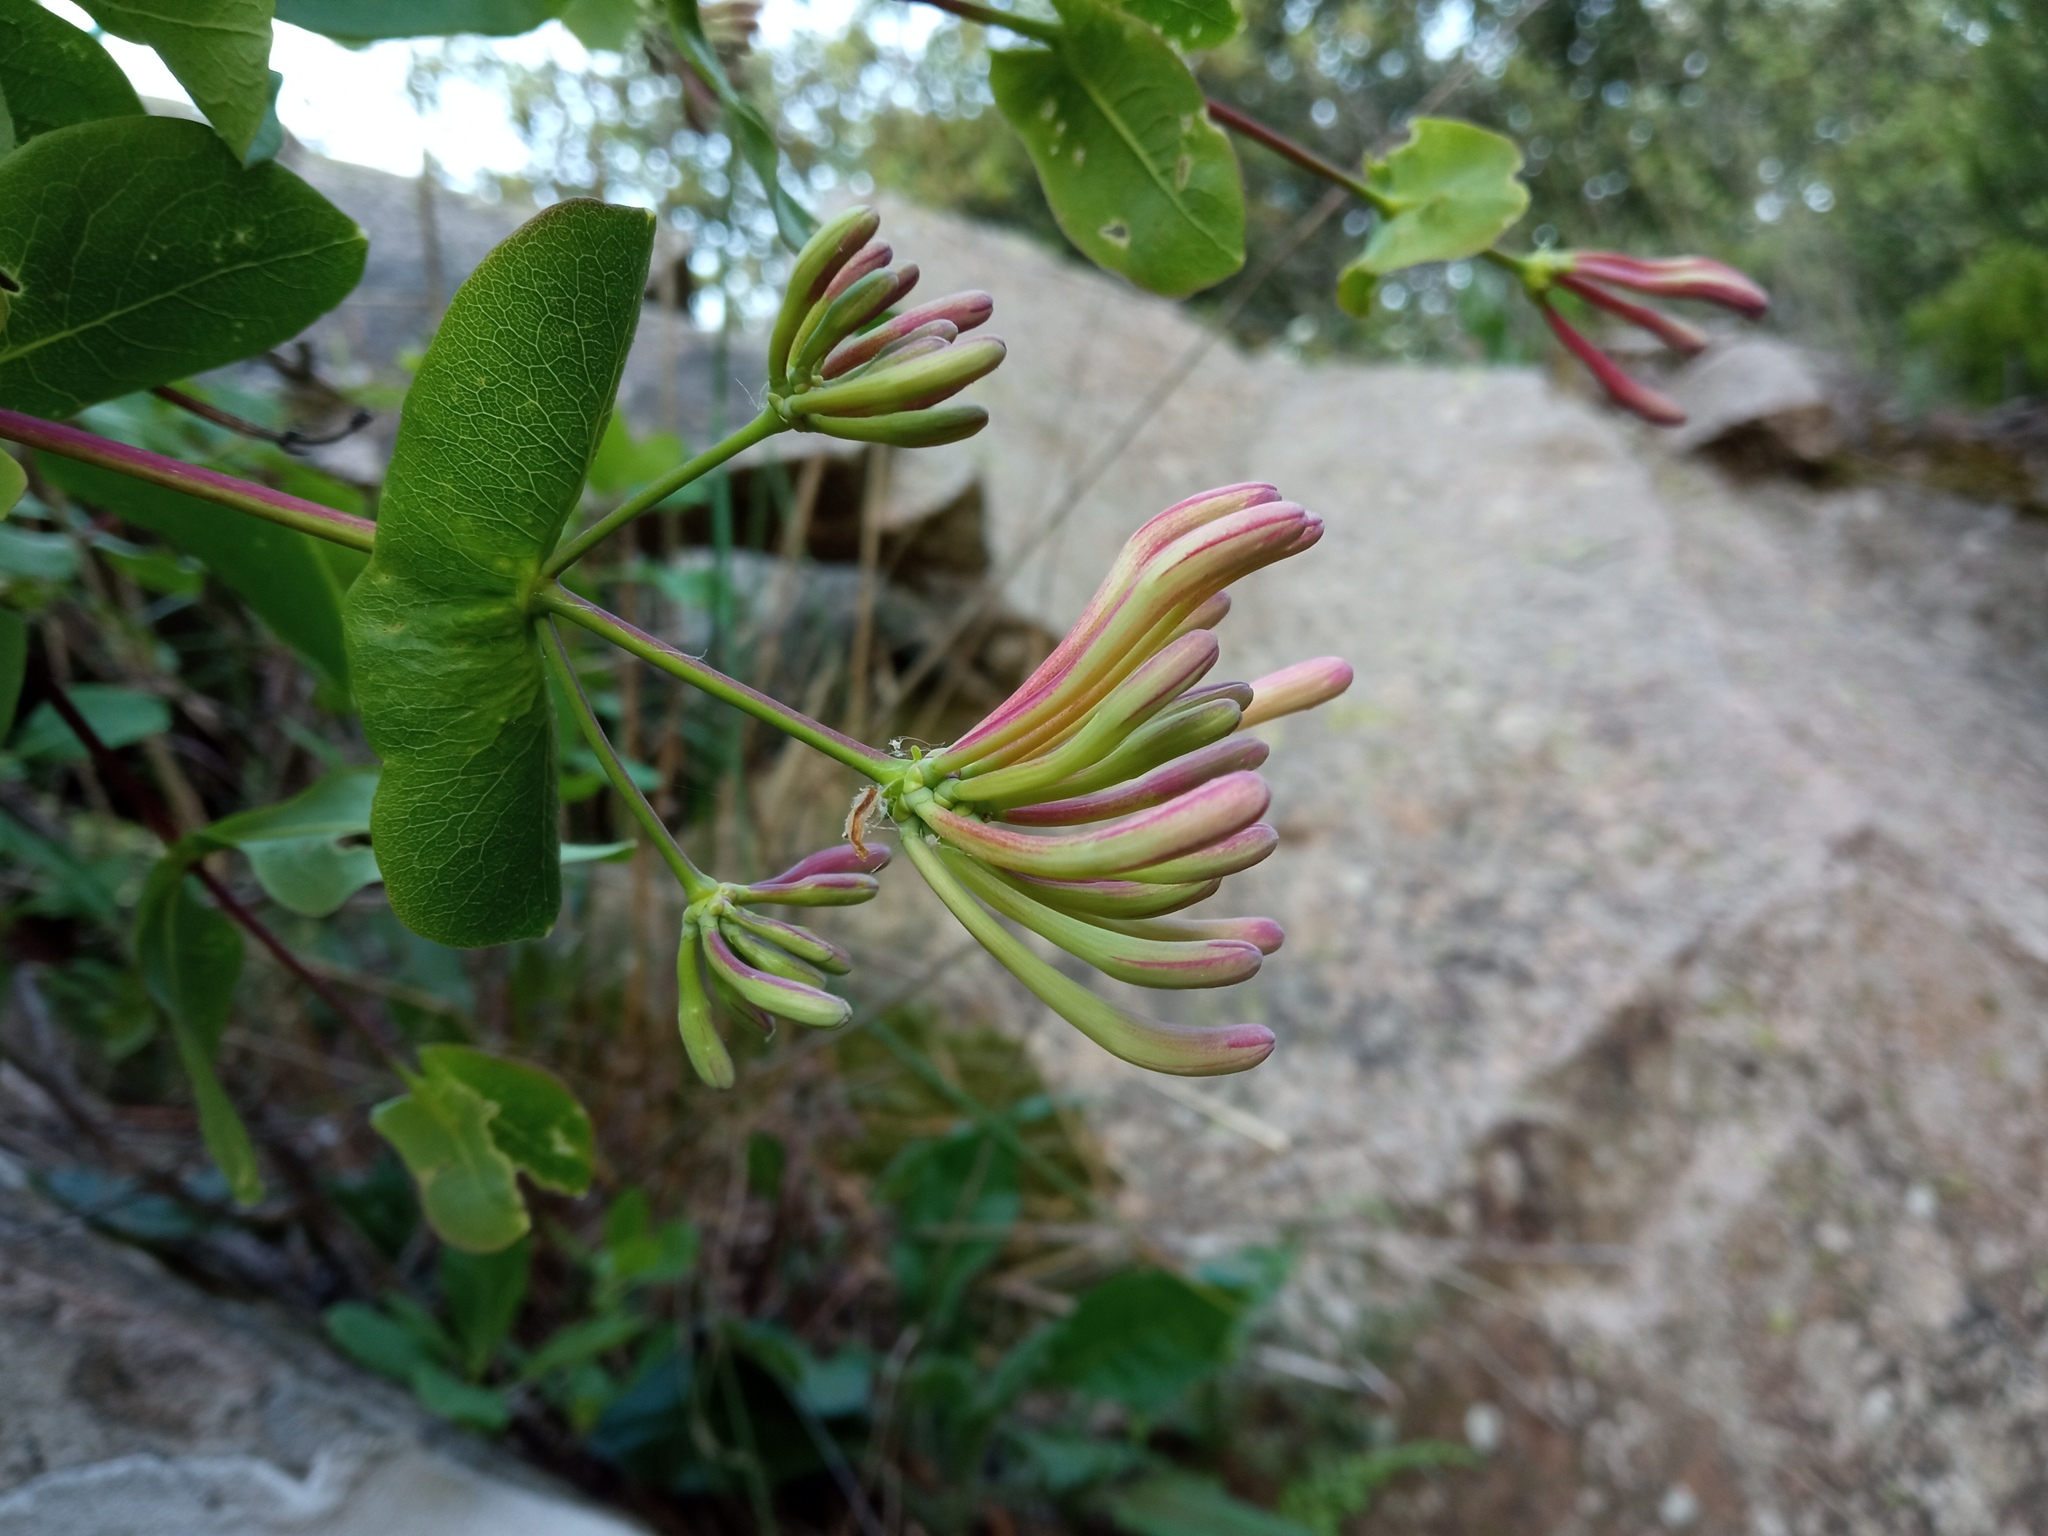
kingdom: Plantae
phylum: Tracheophyta
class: Magnoliopsida
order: Dipsacales
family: Caprifoliaceae
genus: Lonicera
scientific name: Lonicera etrusca
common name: Etruscan honeysuckle
